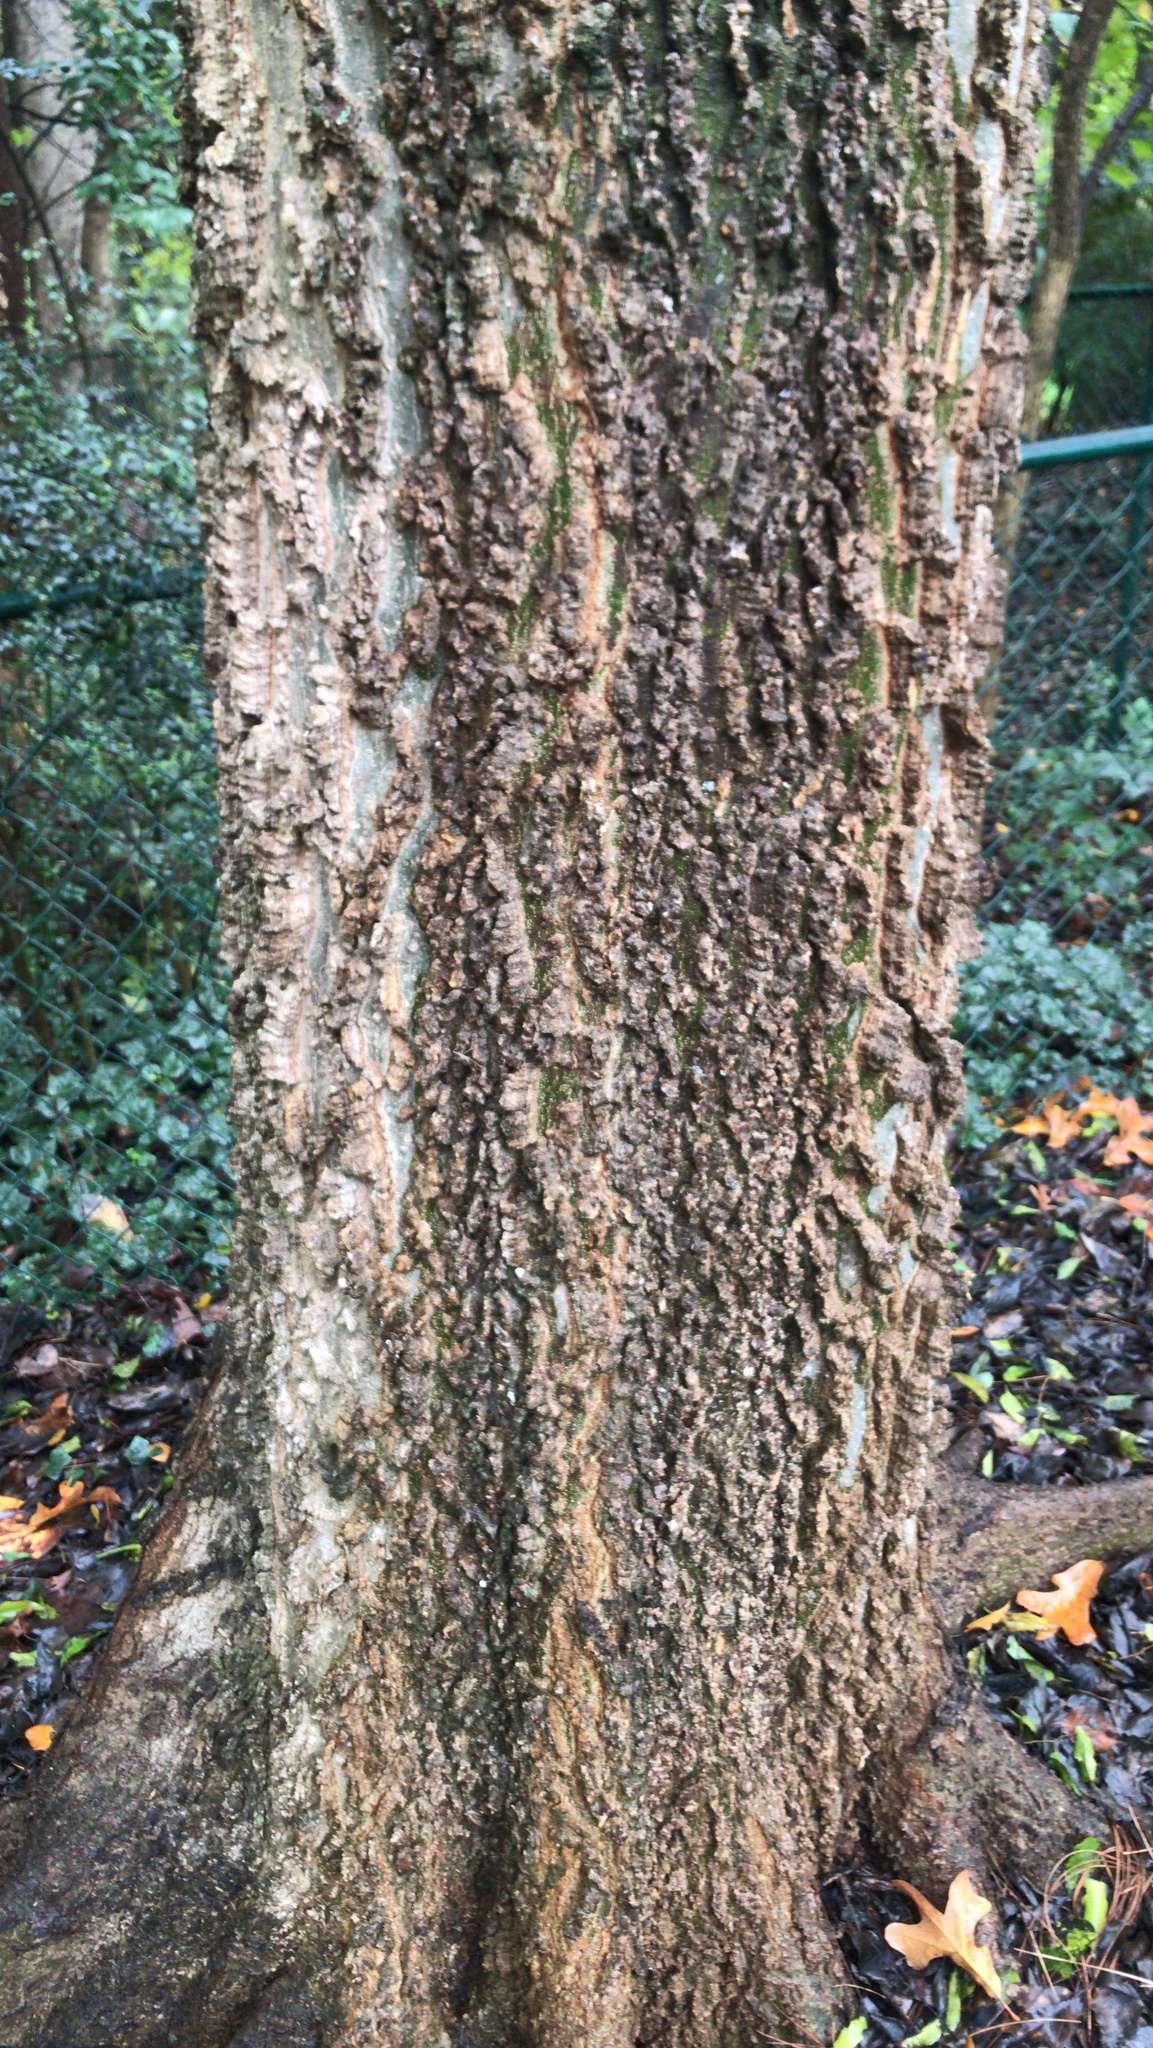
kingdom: Plantae
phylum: Tracheophyta
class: Magnoliopsida
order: Rosales
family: Cannabaceae
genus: Celtis
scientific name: Celtis occidentalis
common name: Common hackberry
